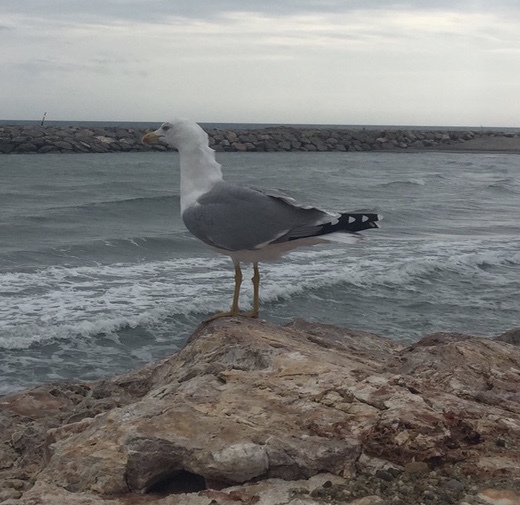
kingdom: Animalia
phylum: Chordata
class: Aves
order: Charadriiformes
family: Laridae
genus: Larus
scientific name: Larus michahellis
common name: Yellow-legged gull
